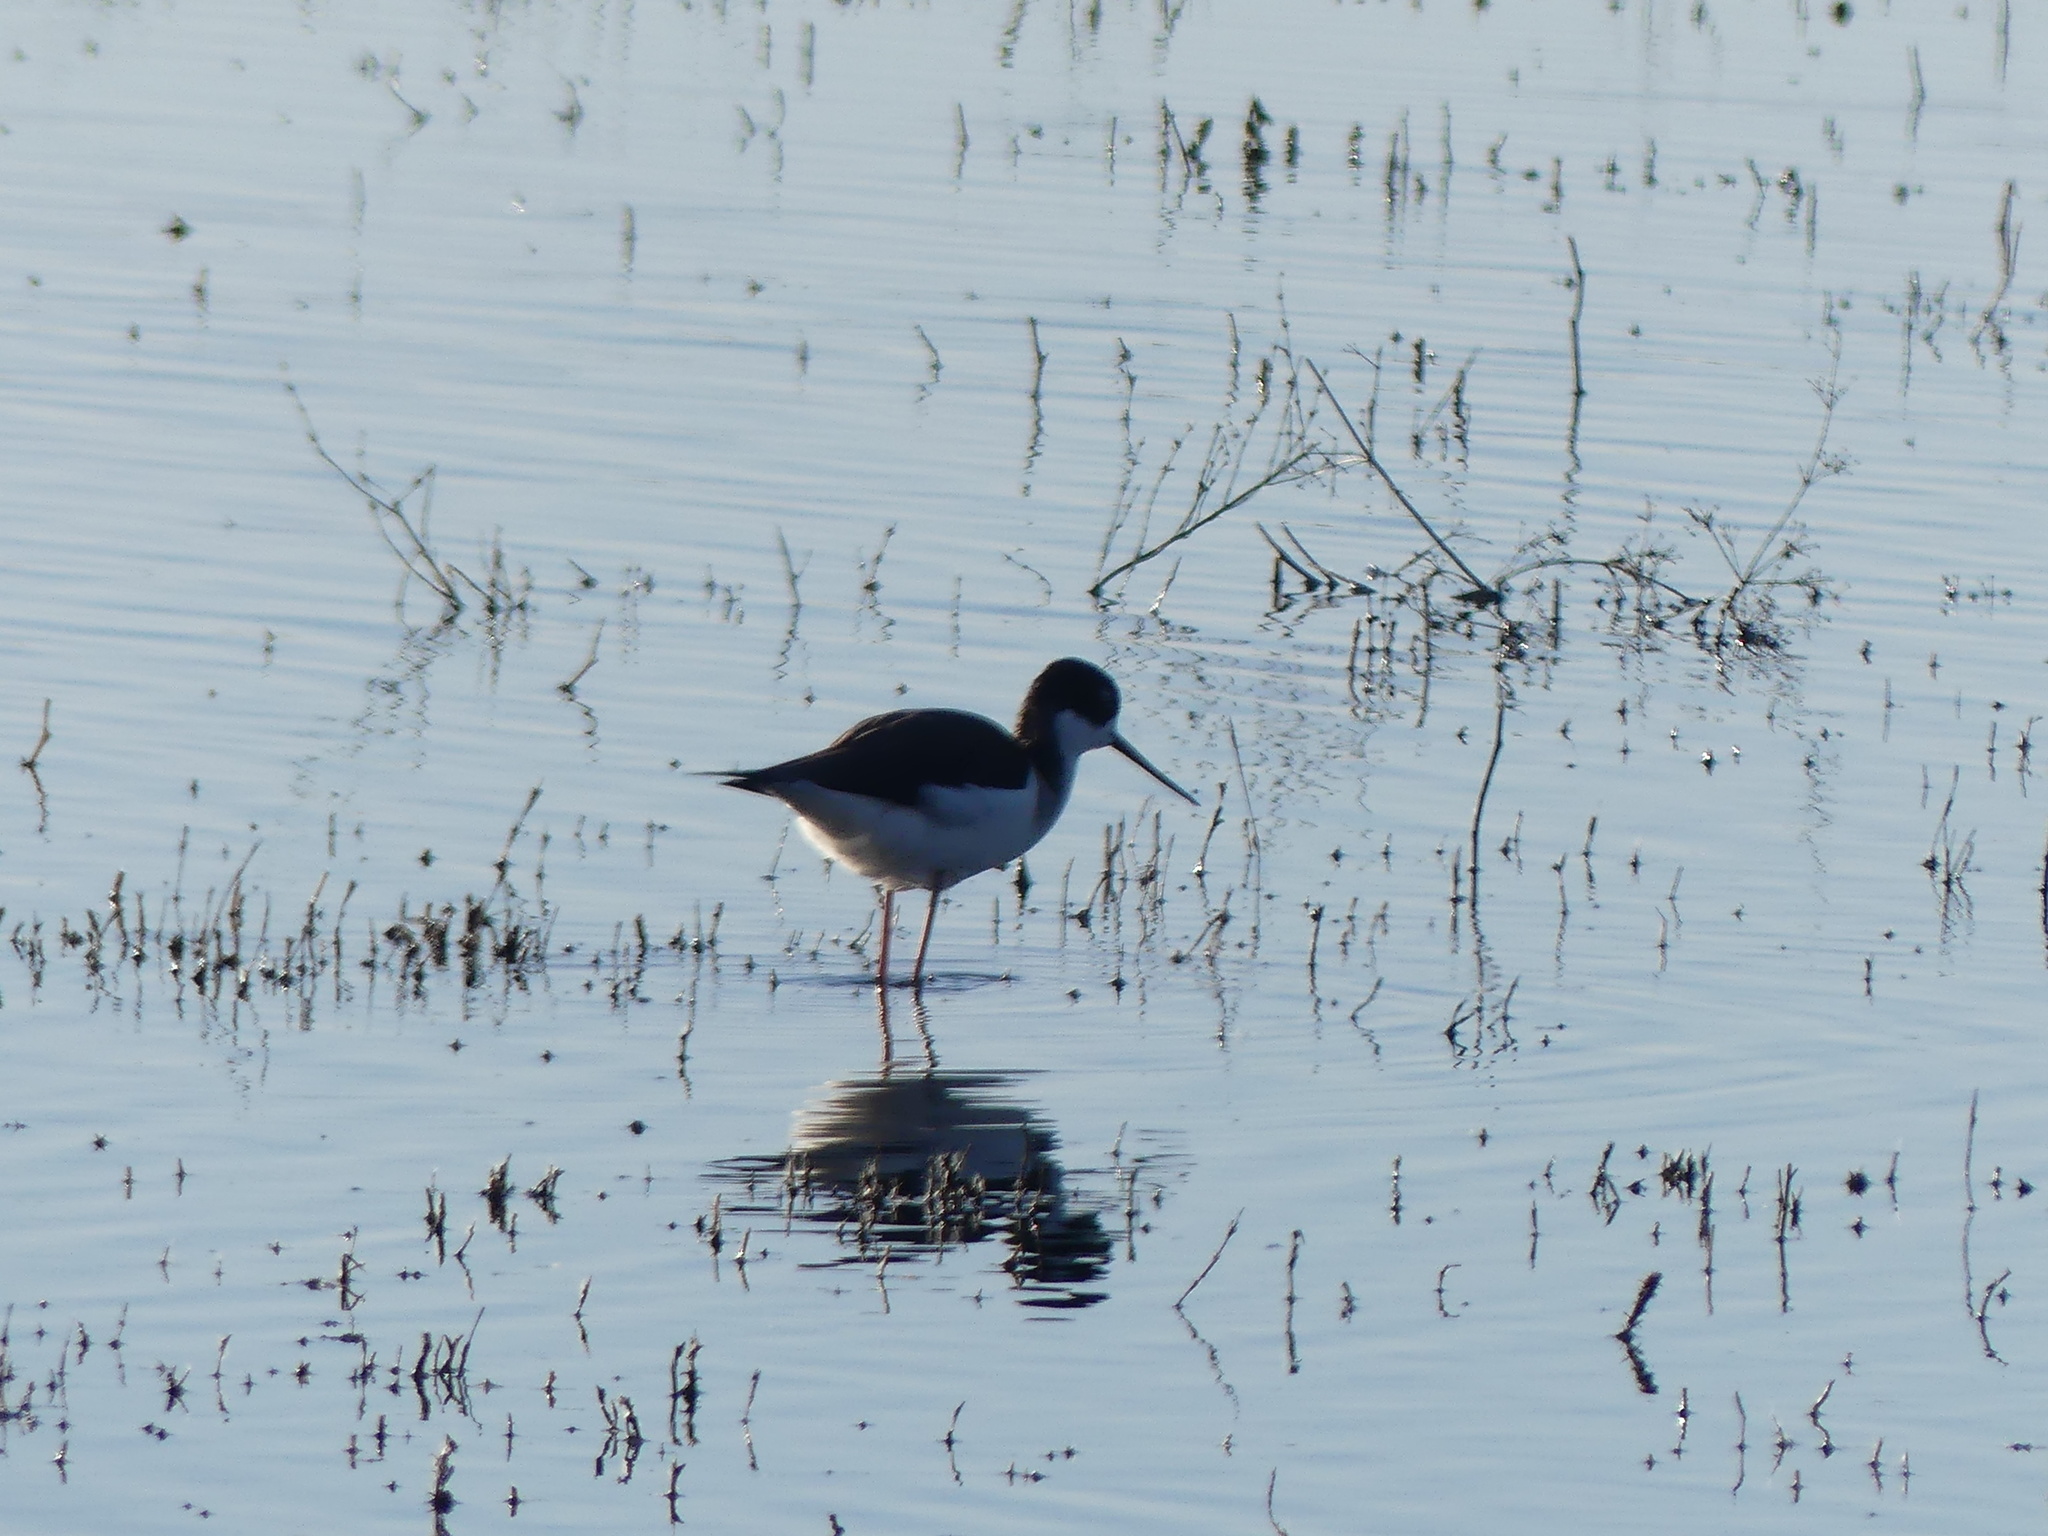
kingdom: Animalia
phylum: Chordata
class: Aves
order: Charadriiformes
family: Recurvirostridae
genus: Himantopus
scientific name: Himantopus mexicanus
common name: Black-necked stilt
